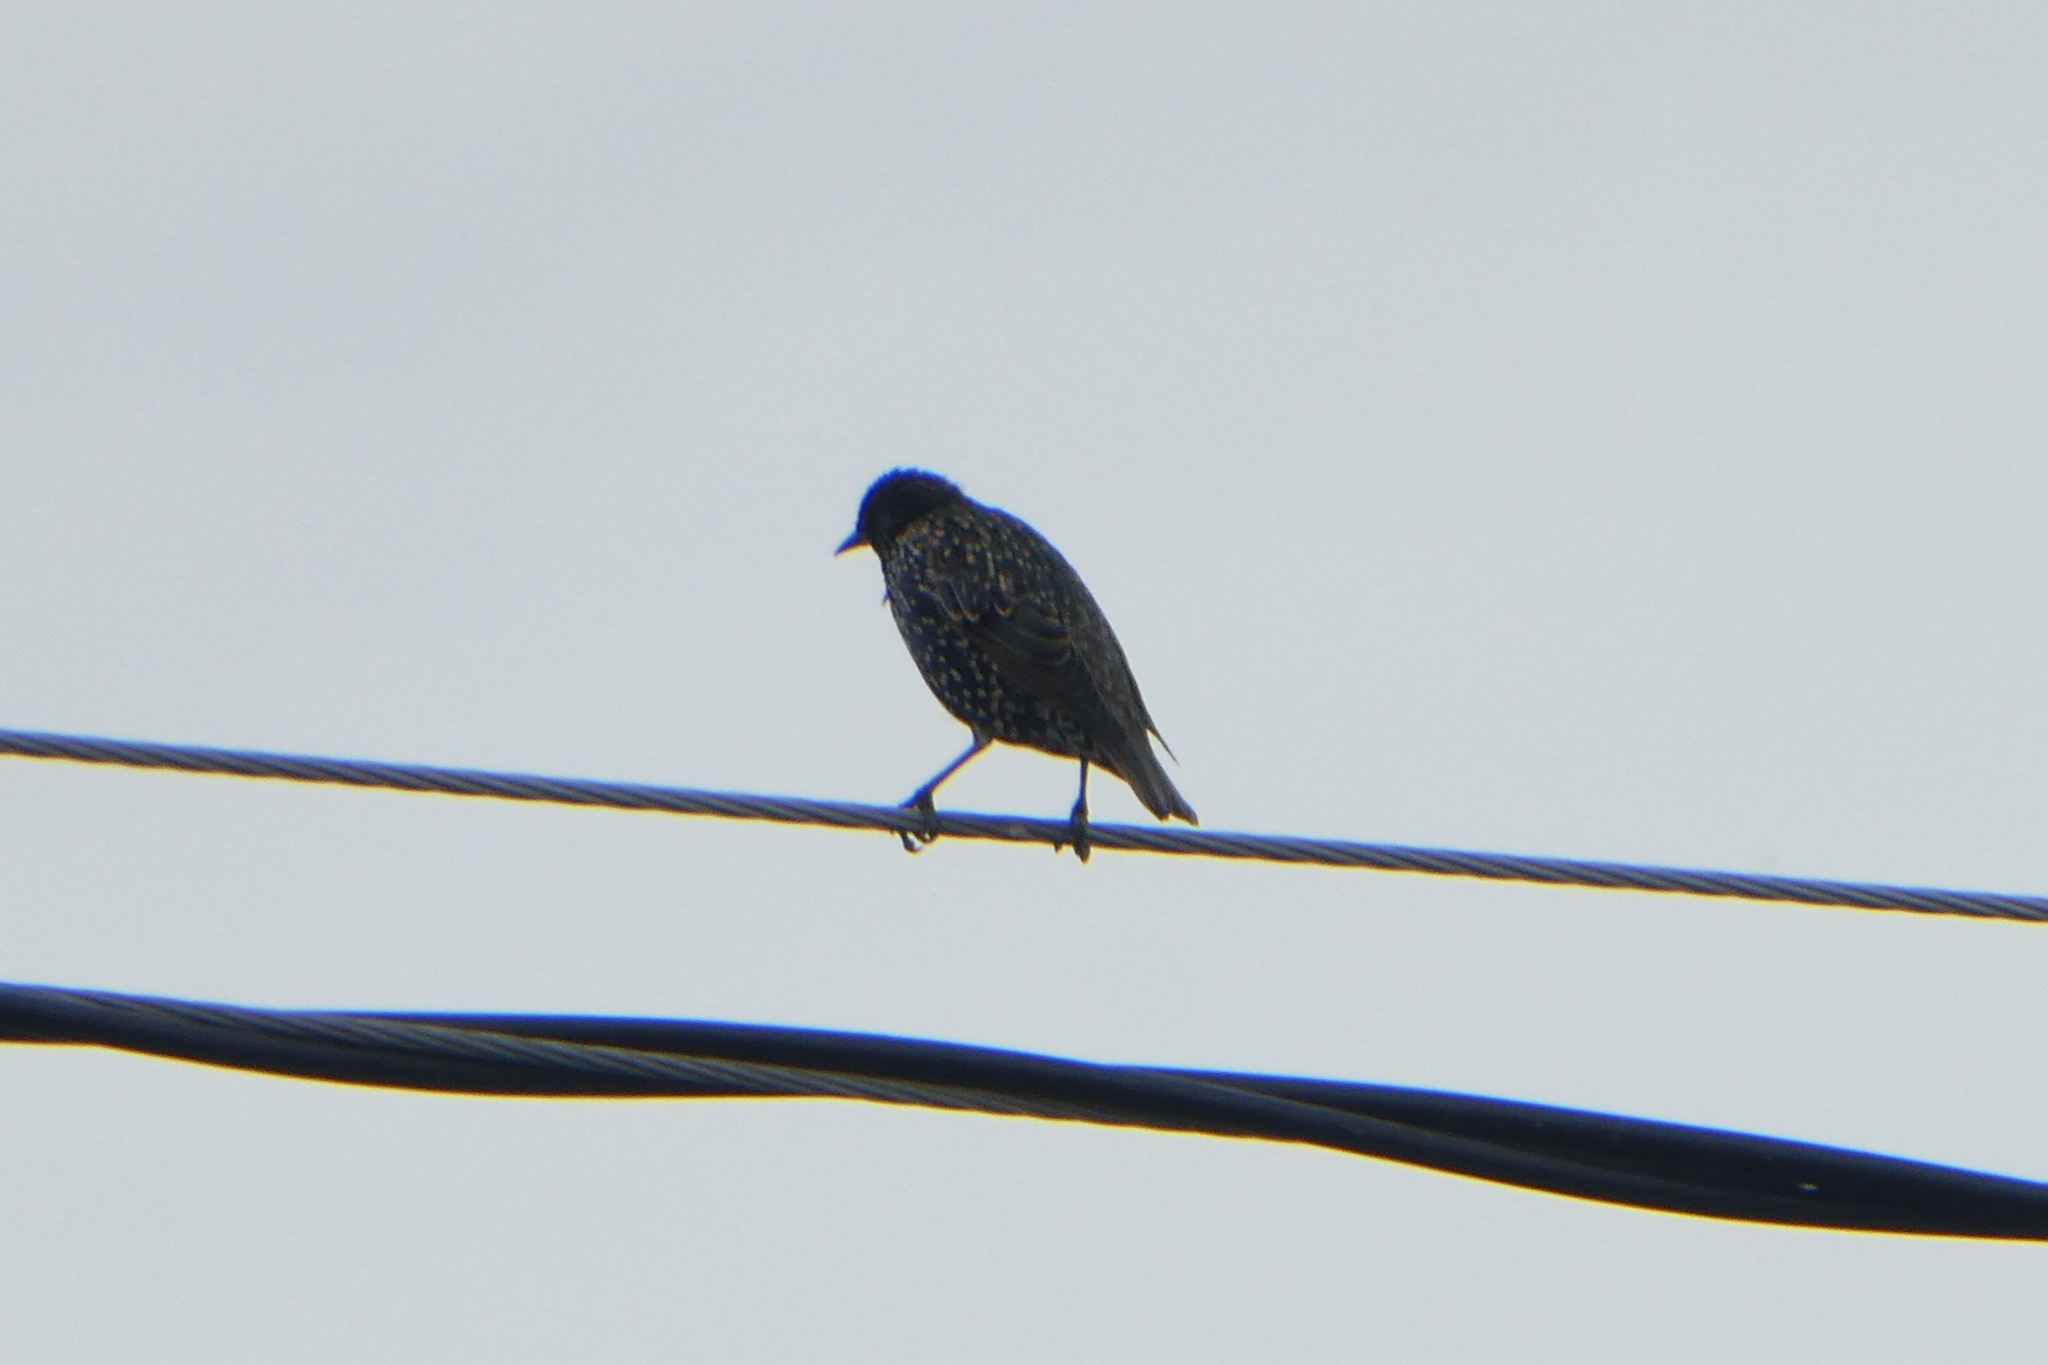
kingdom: Animalia
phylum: Chordata
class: Aves
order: Passeriformes
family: Sturnidae
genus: Sturnus
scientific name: Sturnus vulgaris
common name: Common starling
